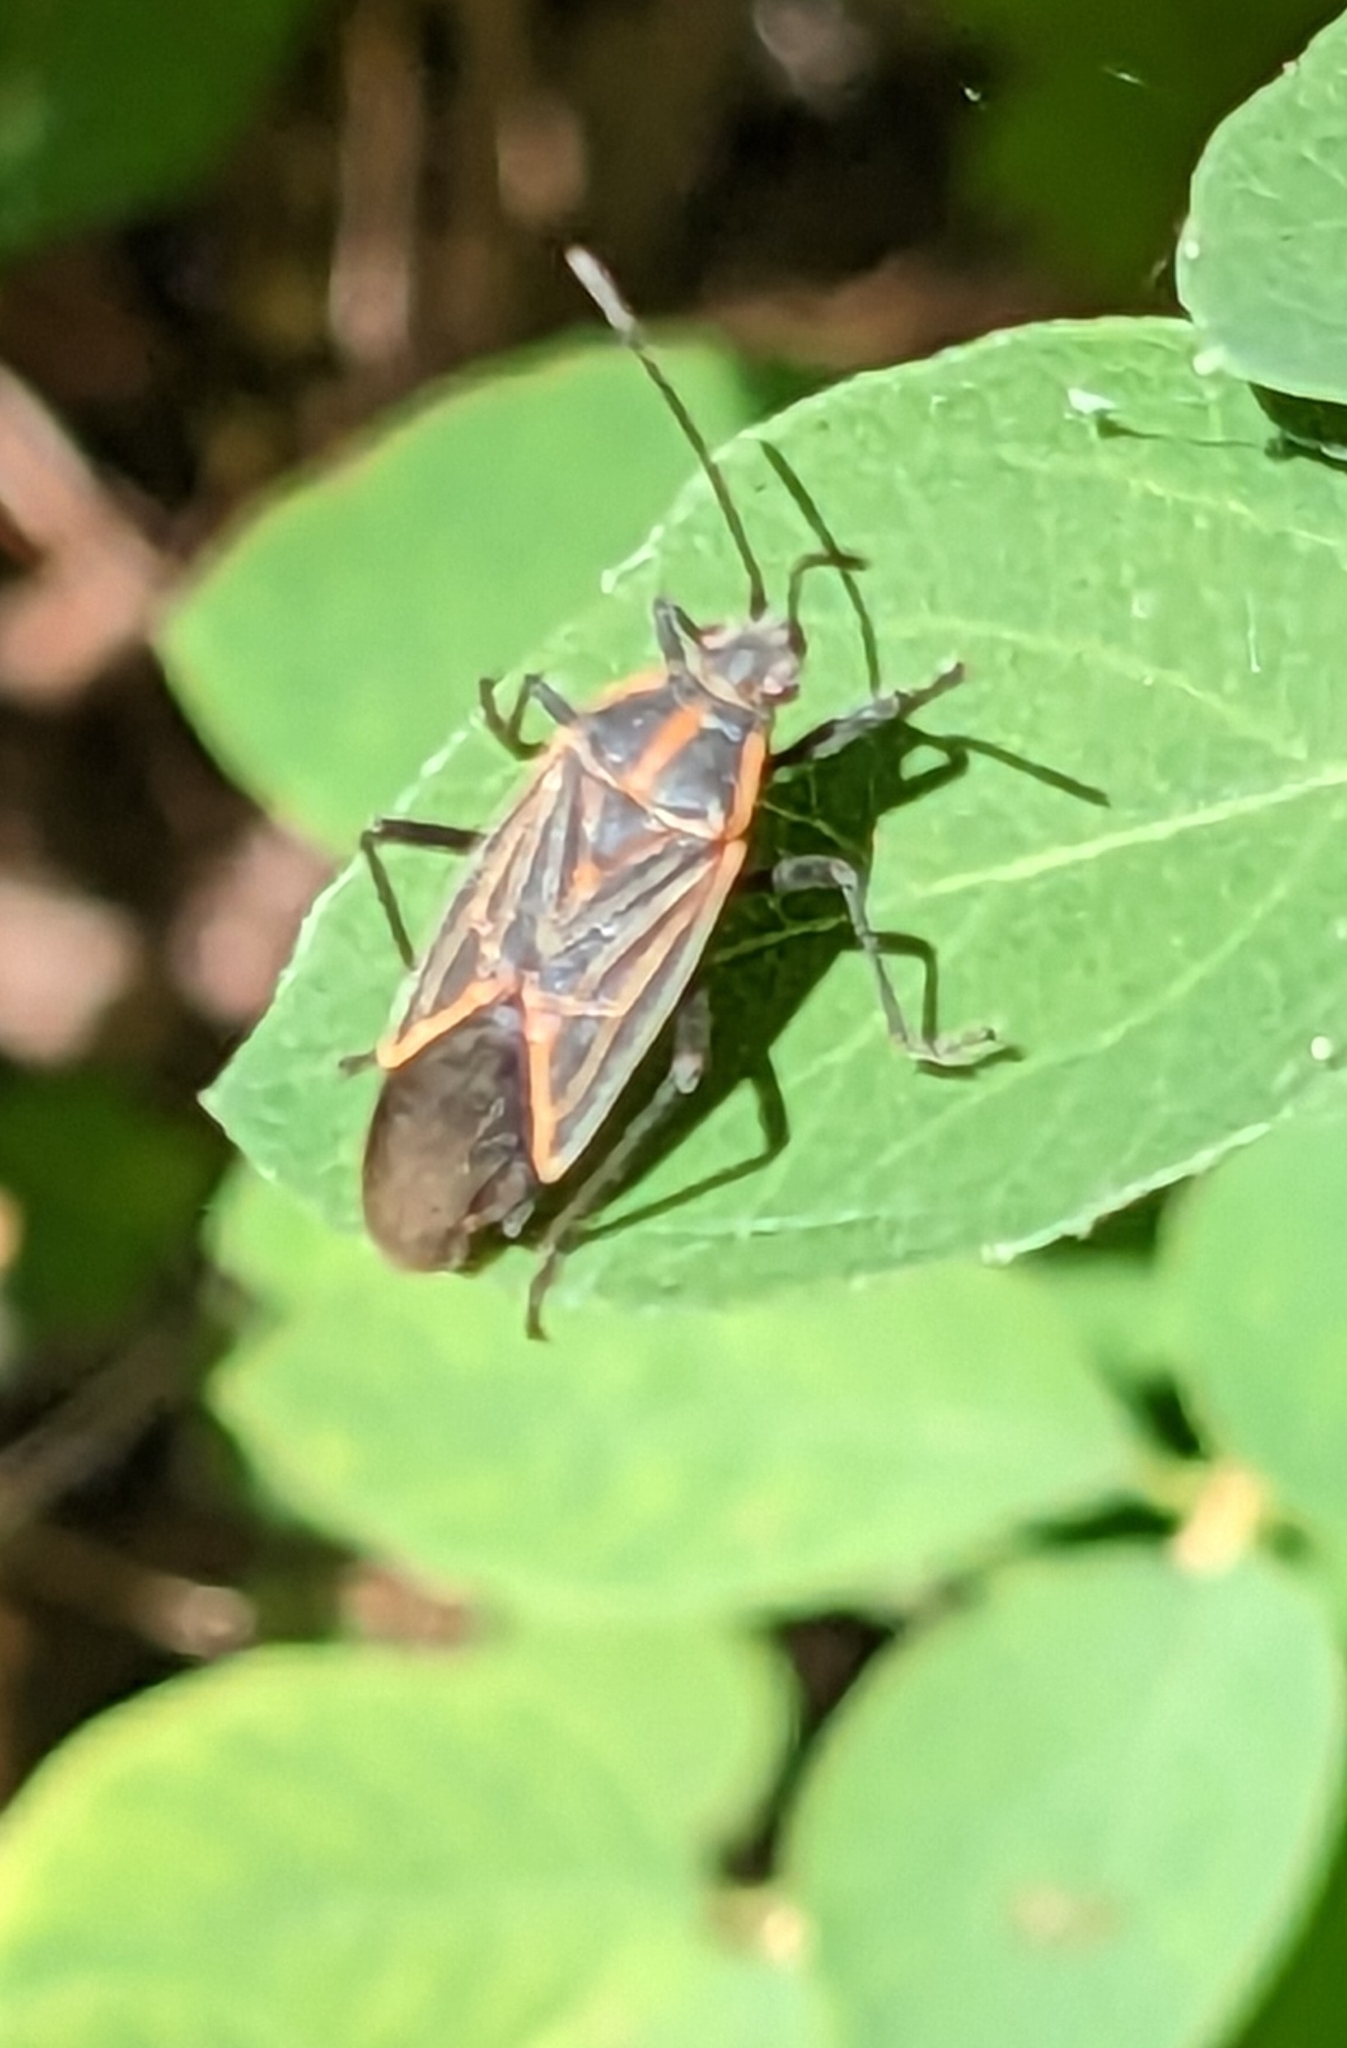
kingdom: Animalia
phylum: Arthropoda
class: Insecta
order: Hemiptera
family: Rhopalidae
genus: Boisea
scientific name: Boisea rubrolineata
